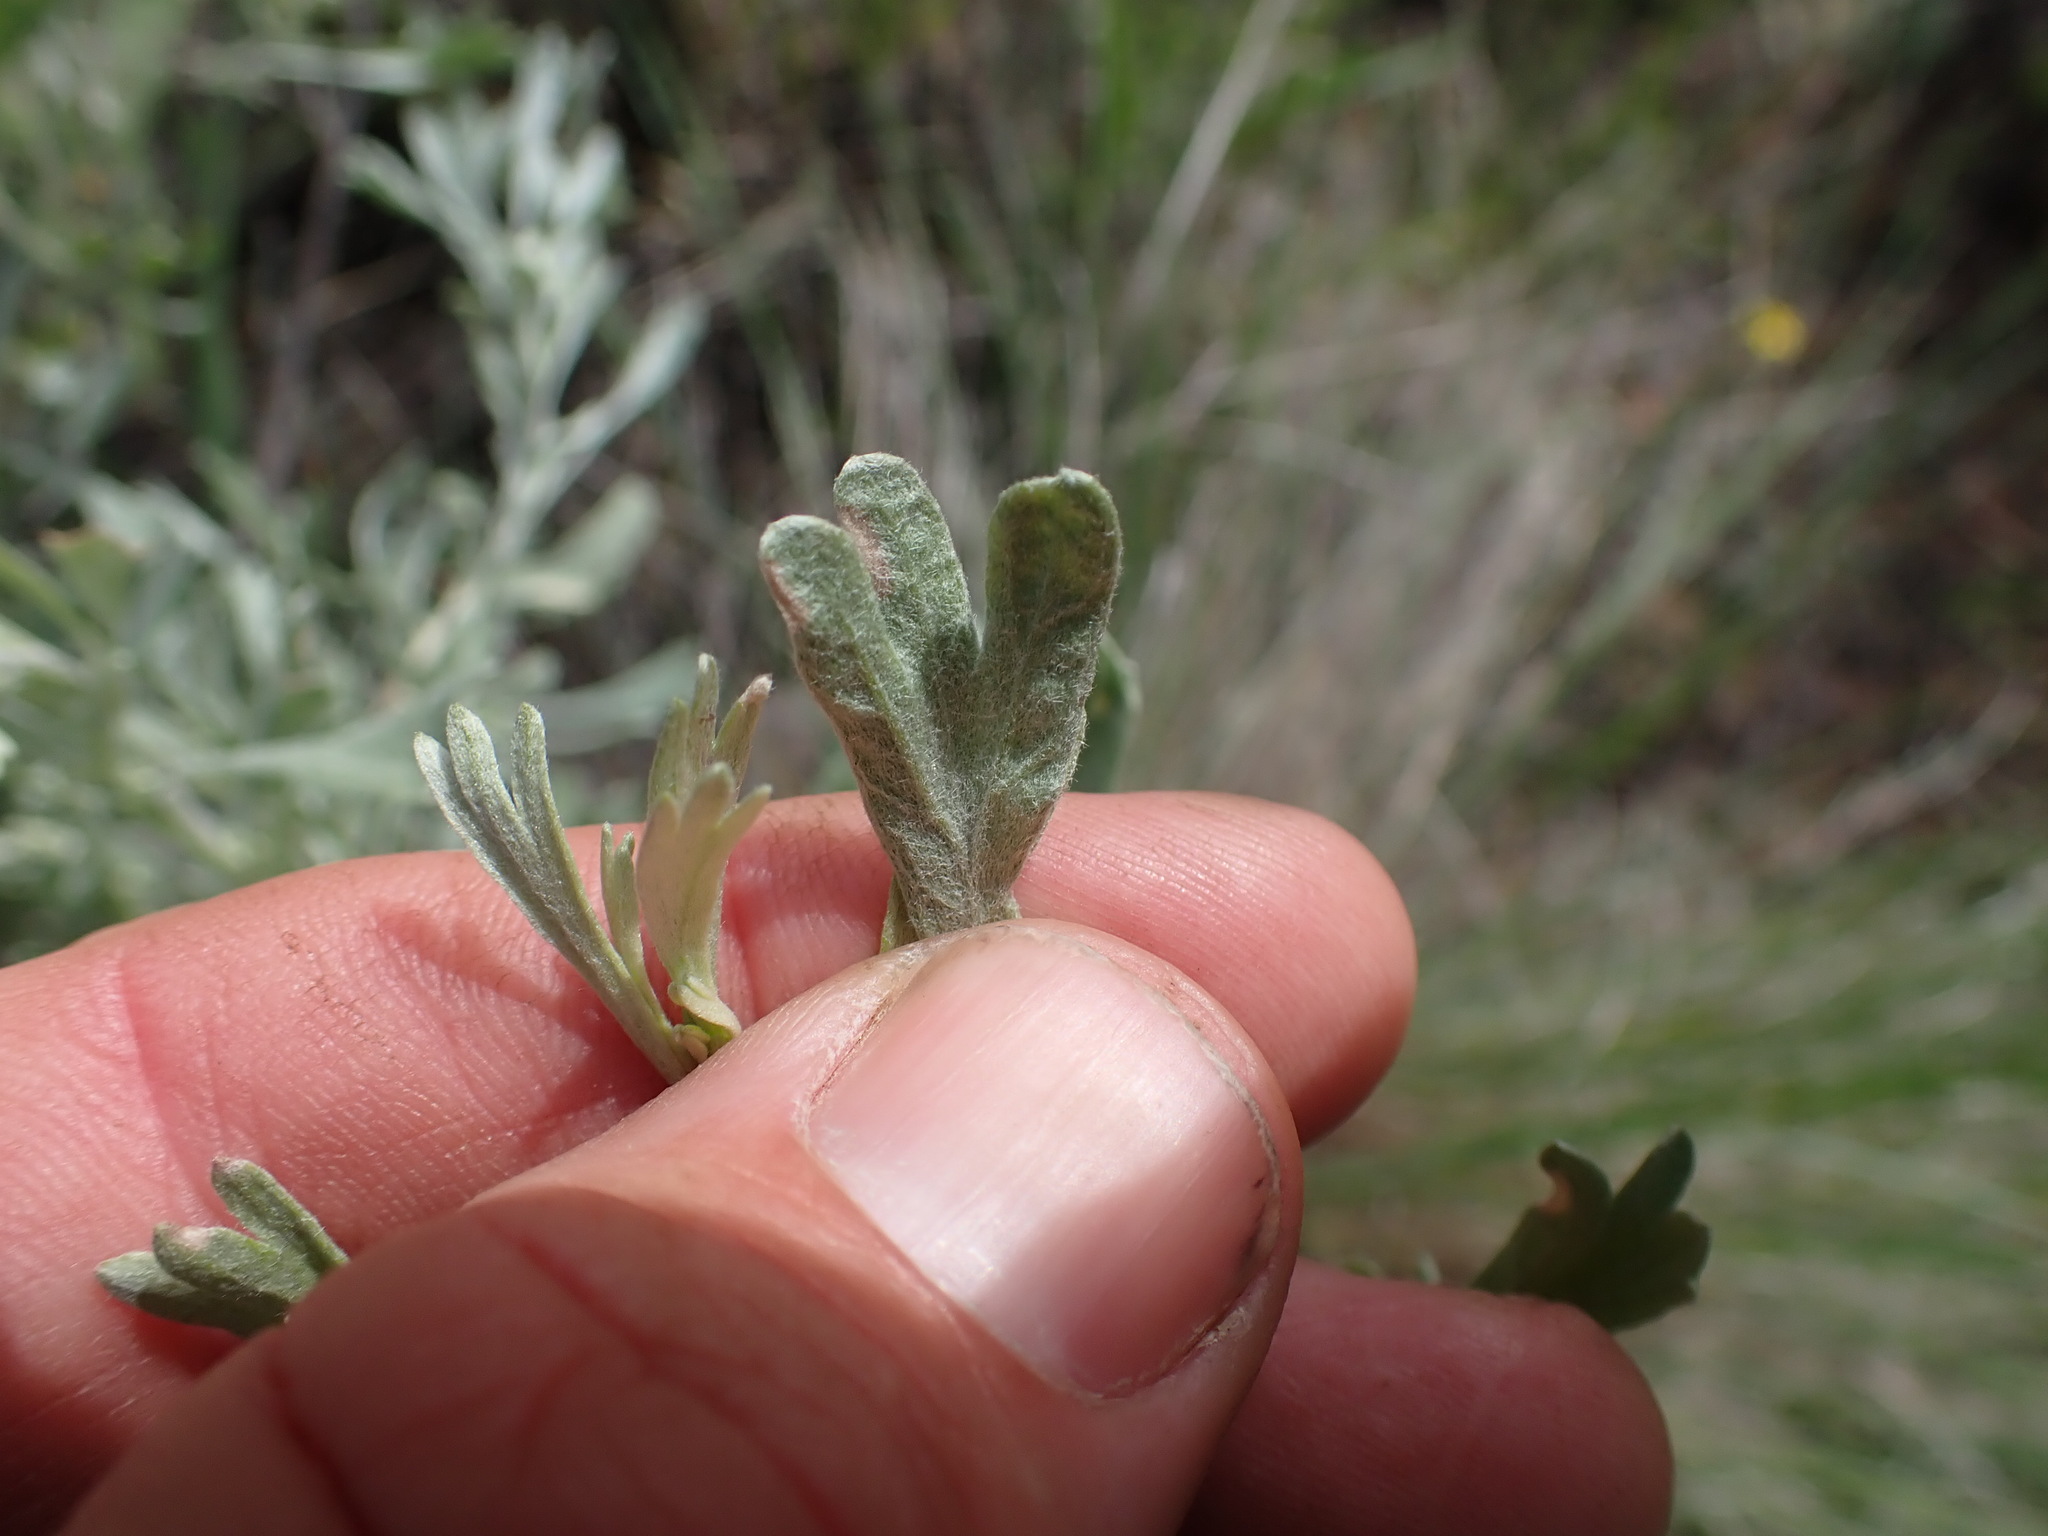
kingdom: Plantae
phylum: Tracheophyta
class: Magnoliopsida
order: Asterales
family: Asteraceae
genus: Artemisia
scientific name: Artemisia tridentata
